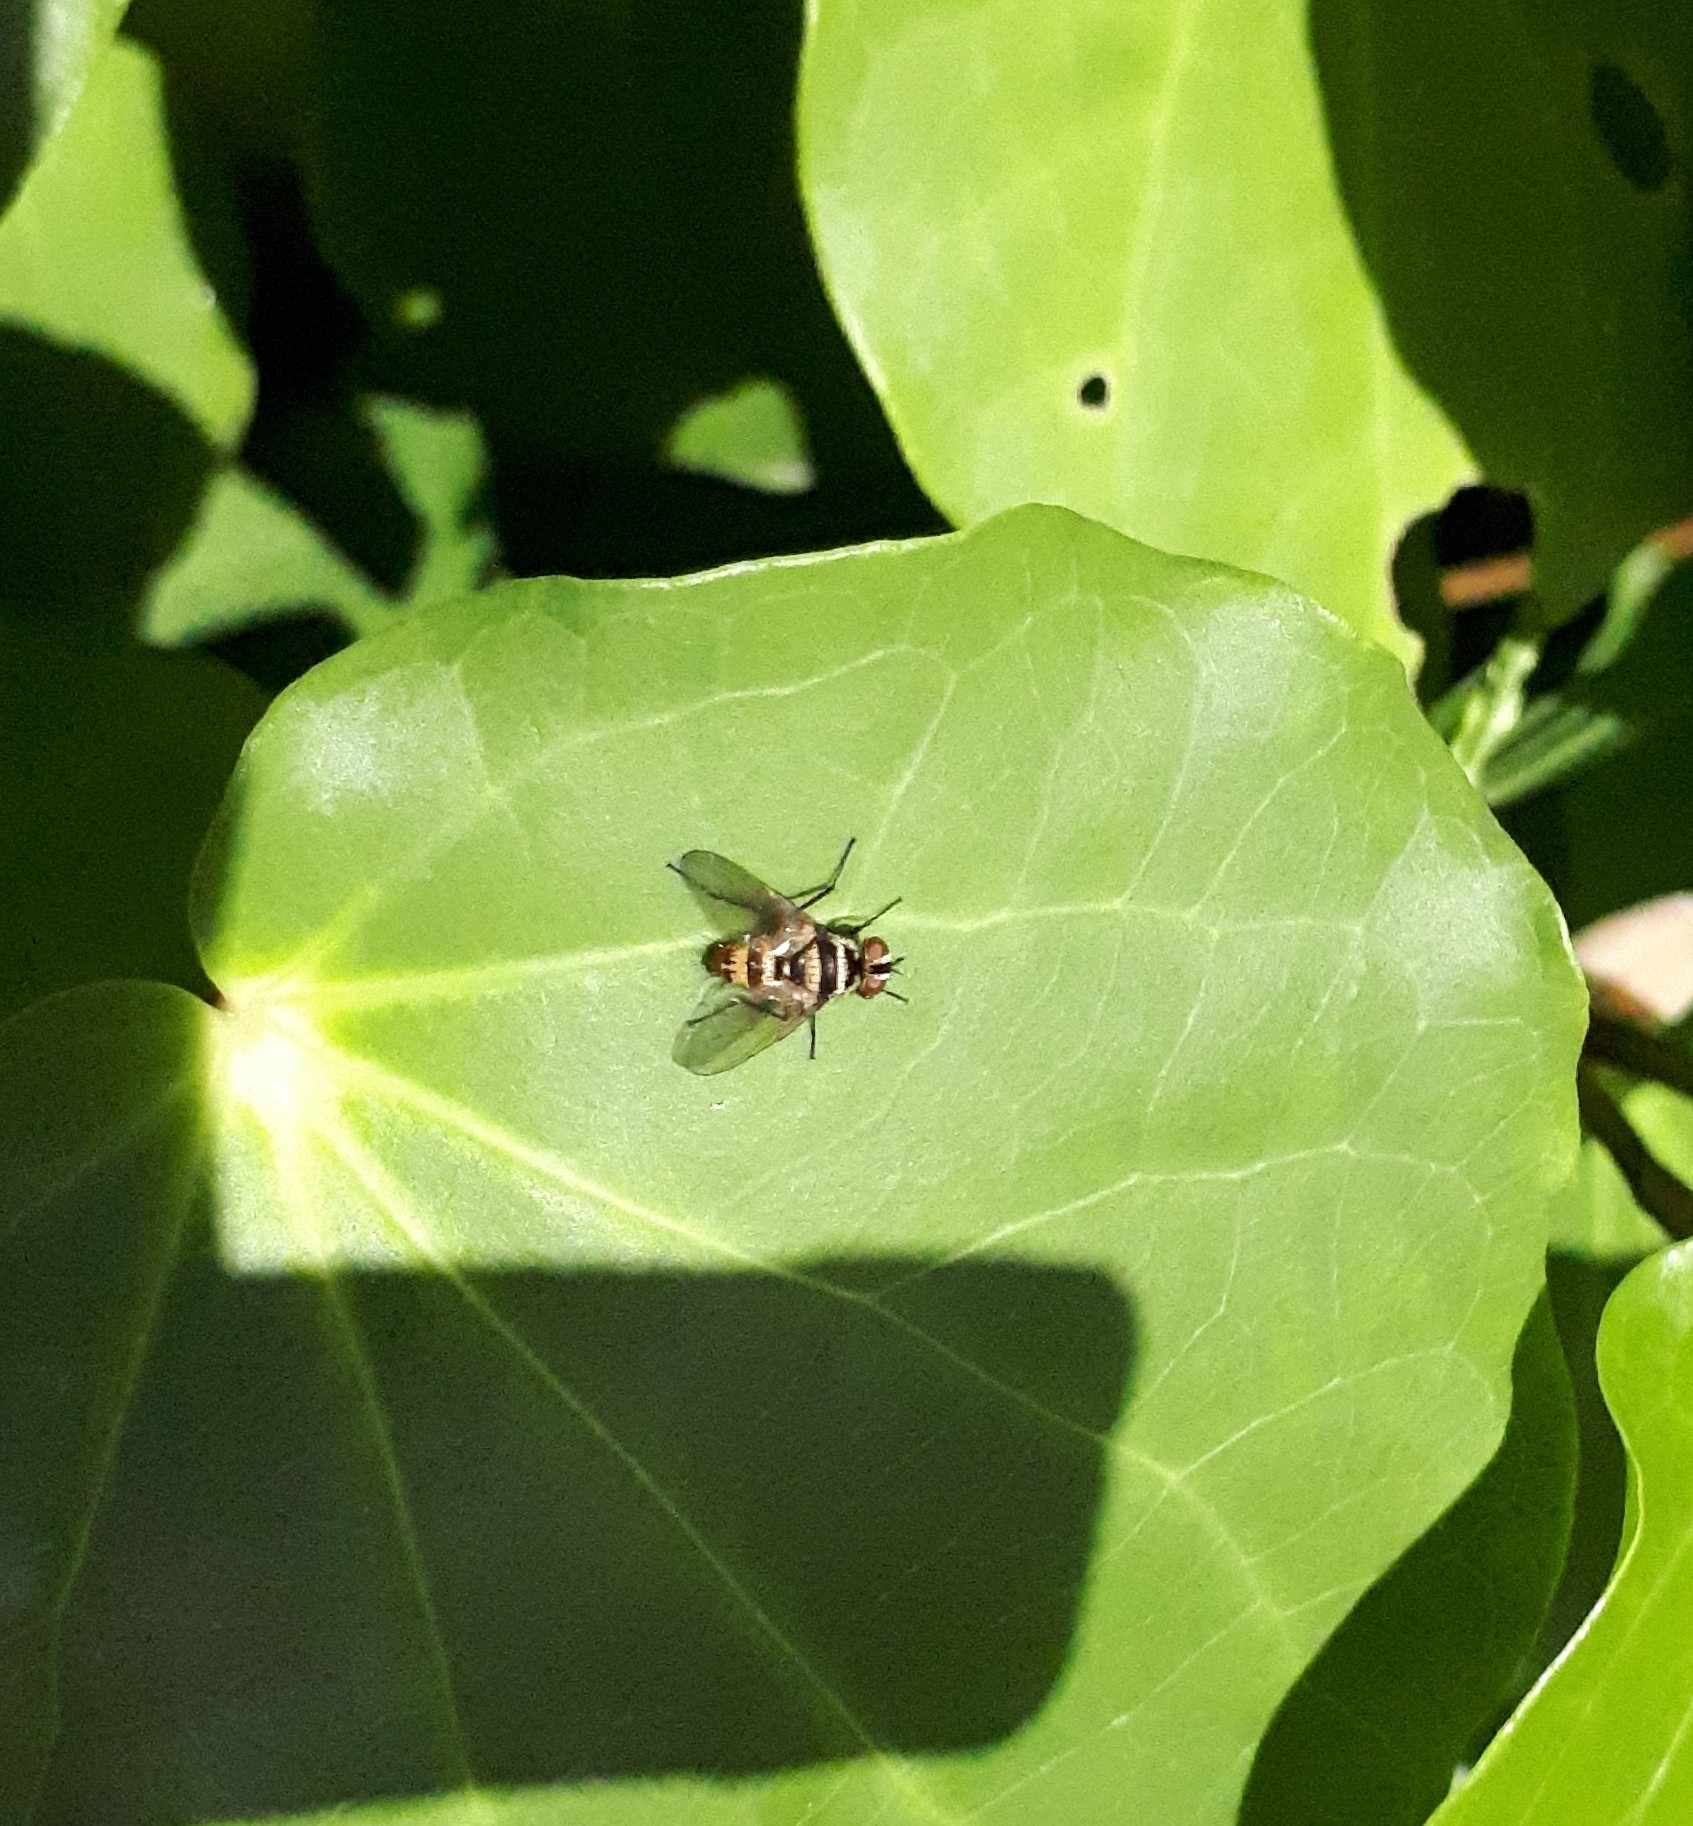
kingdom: Animalia
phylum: Arthropoda
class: Insecta
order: Diptera
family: Tachinidae
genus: Trigonospila
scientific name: Trigonospila brevifacies
